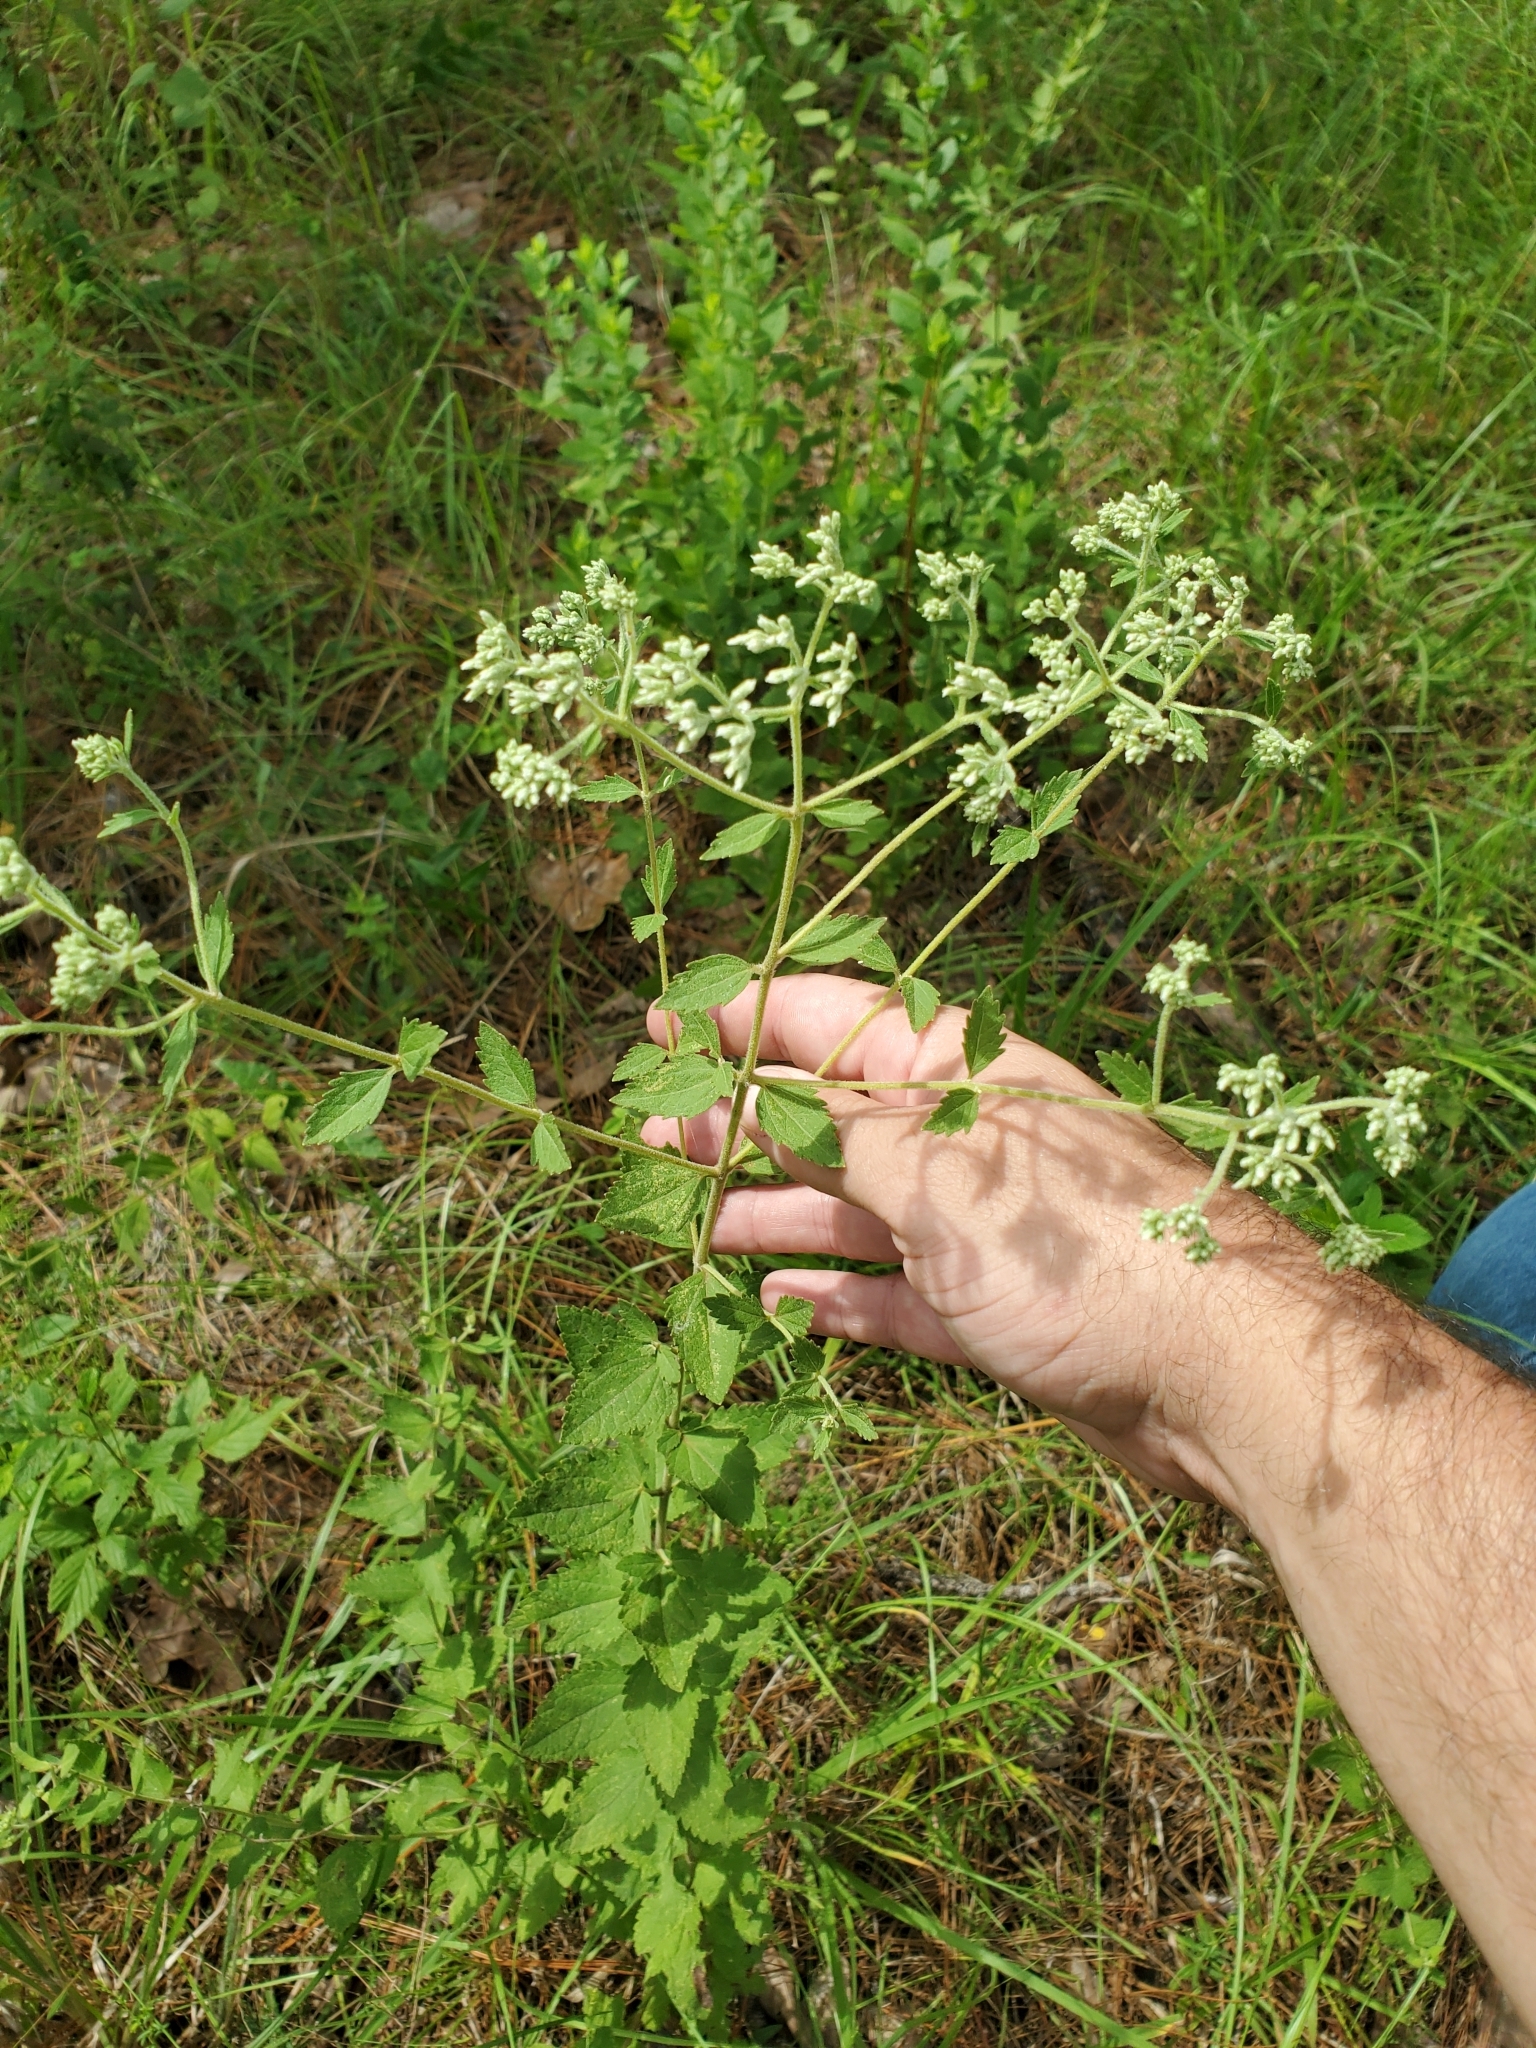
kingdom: Plantae
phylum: Tracheophyta
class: Magnoliopsida
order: Asterales
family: Asteraceae
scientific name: Asteraceae
